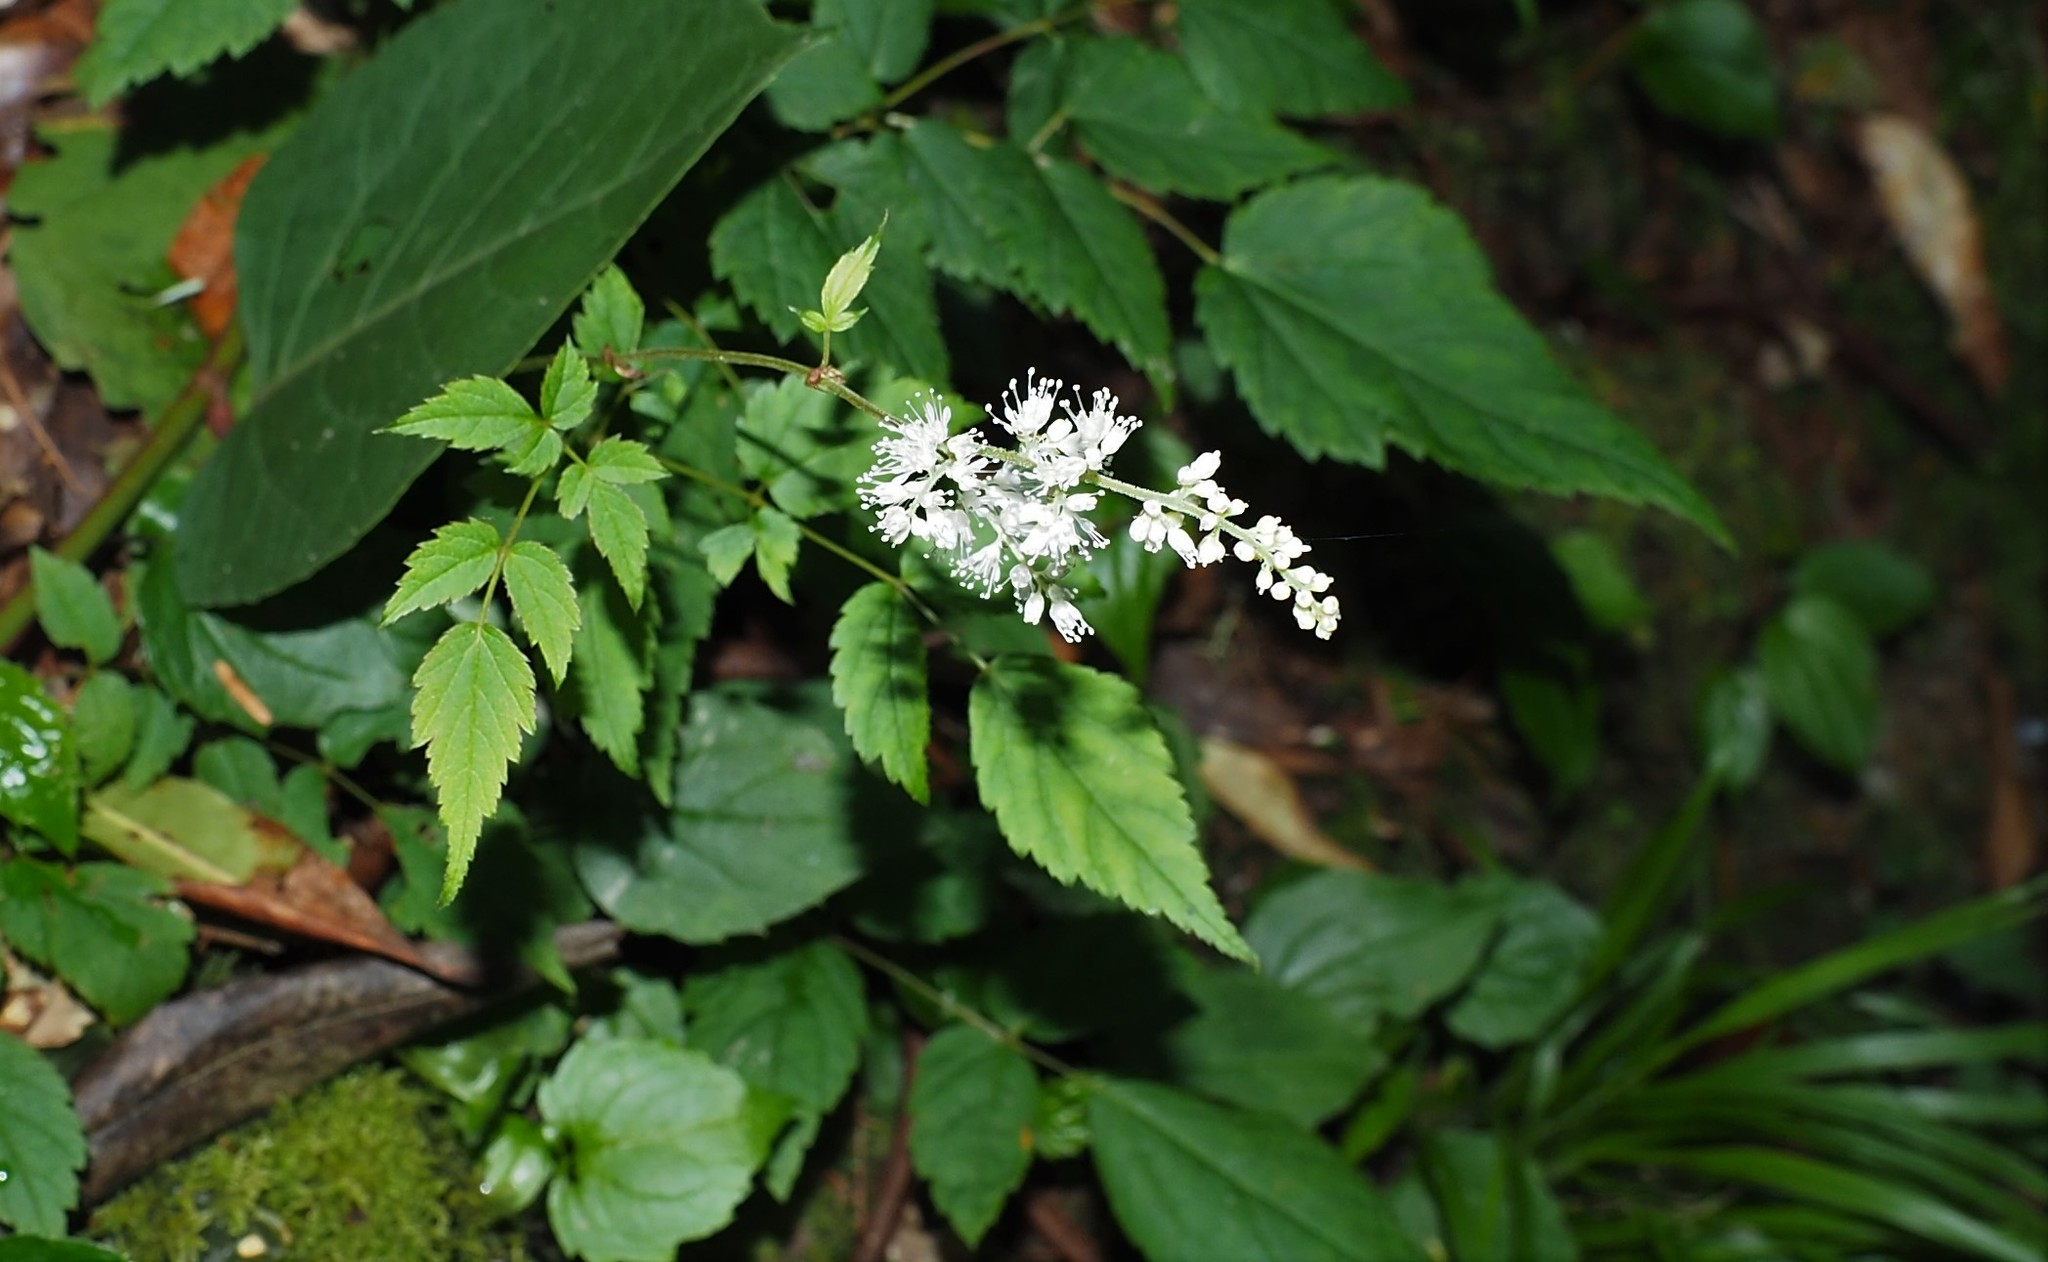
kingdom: Plantae
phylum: Tracheophyta
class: Magnoliopsida
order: Saxifragales
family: Saxifragaceae
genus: Astilbe
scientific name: Astilbe longicarpa
